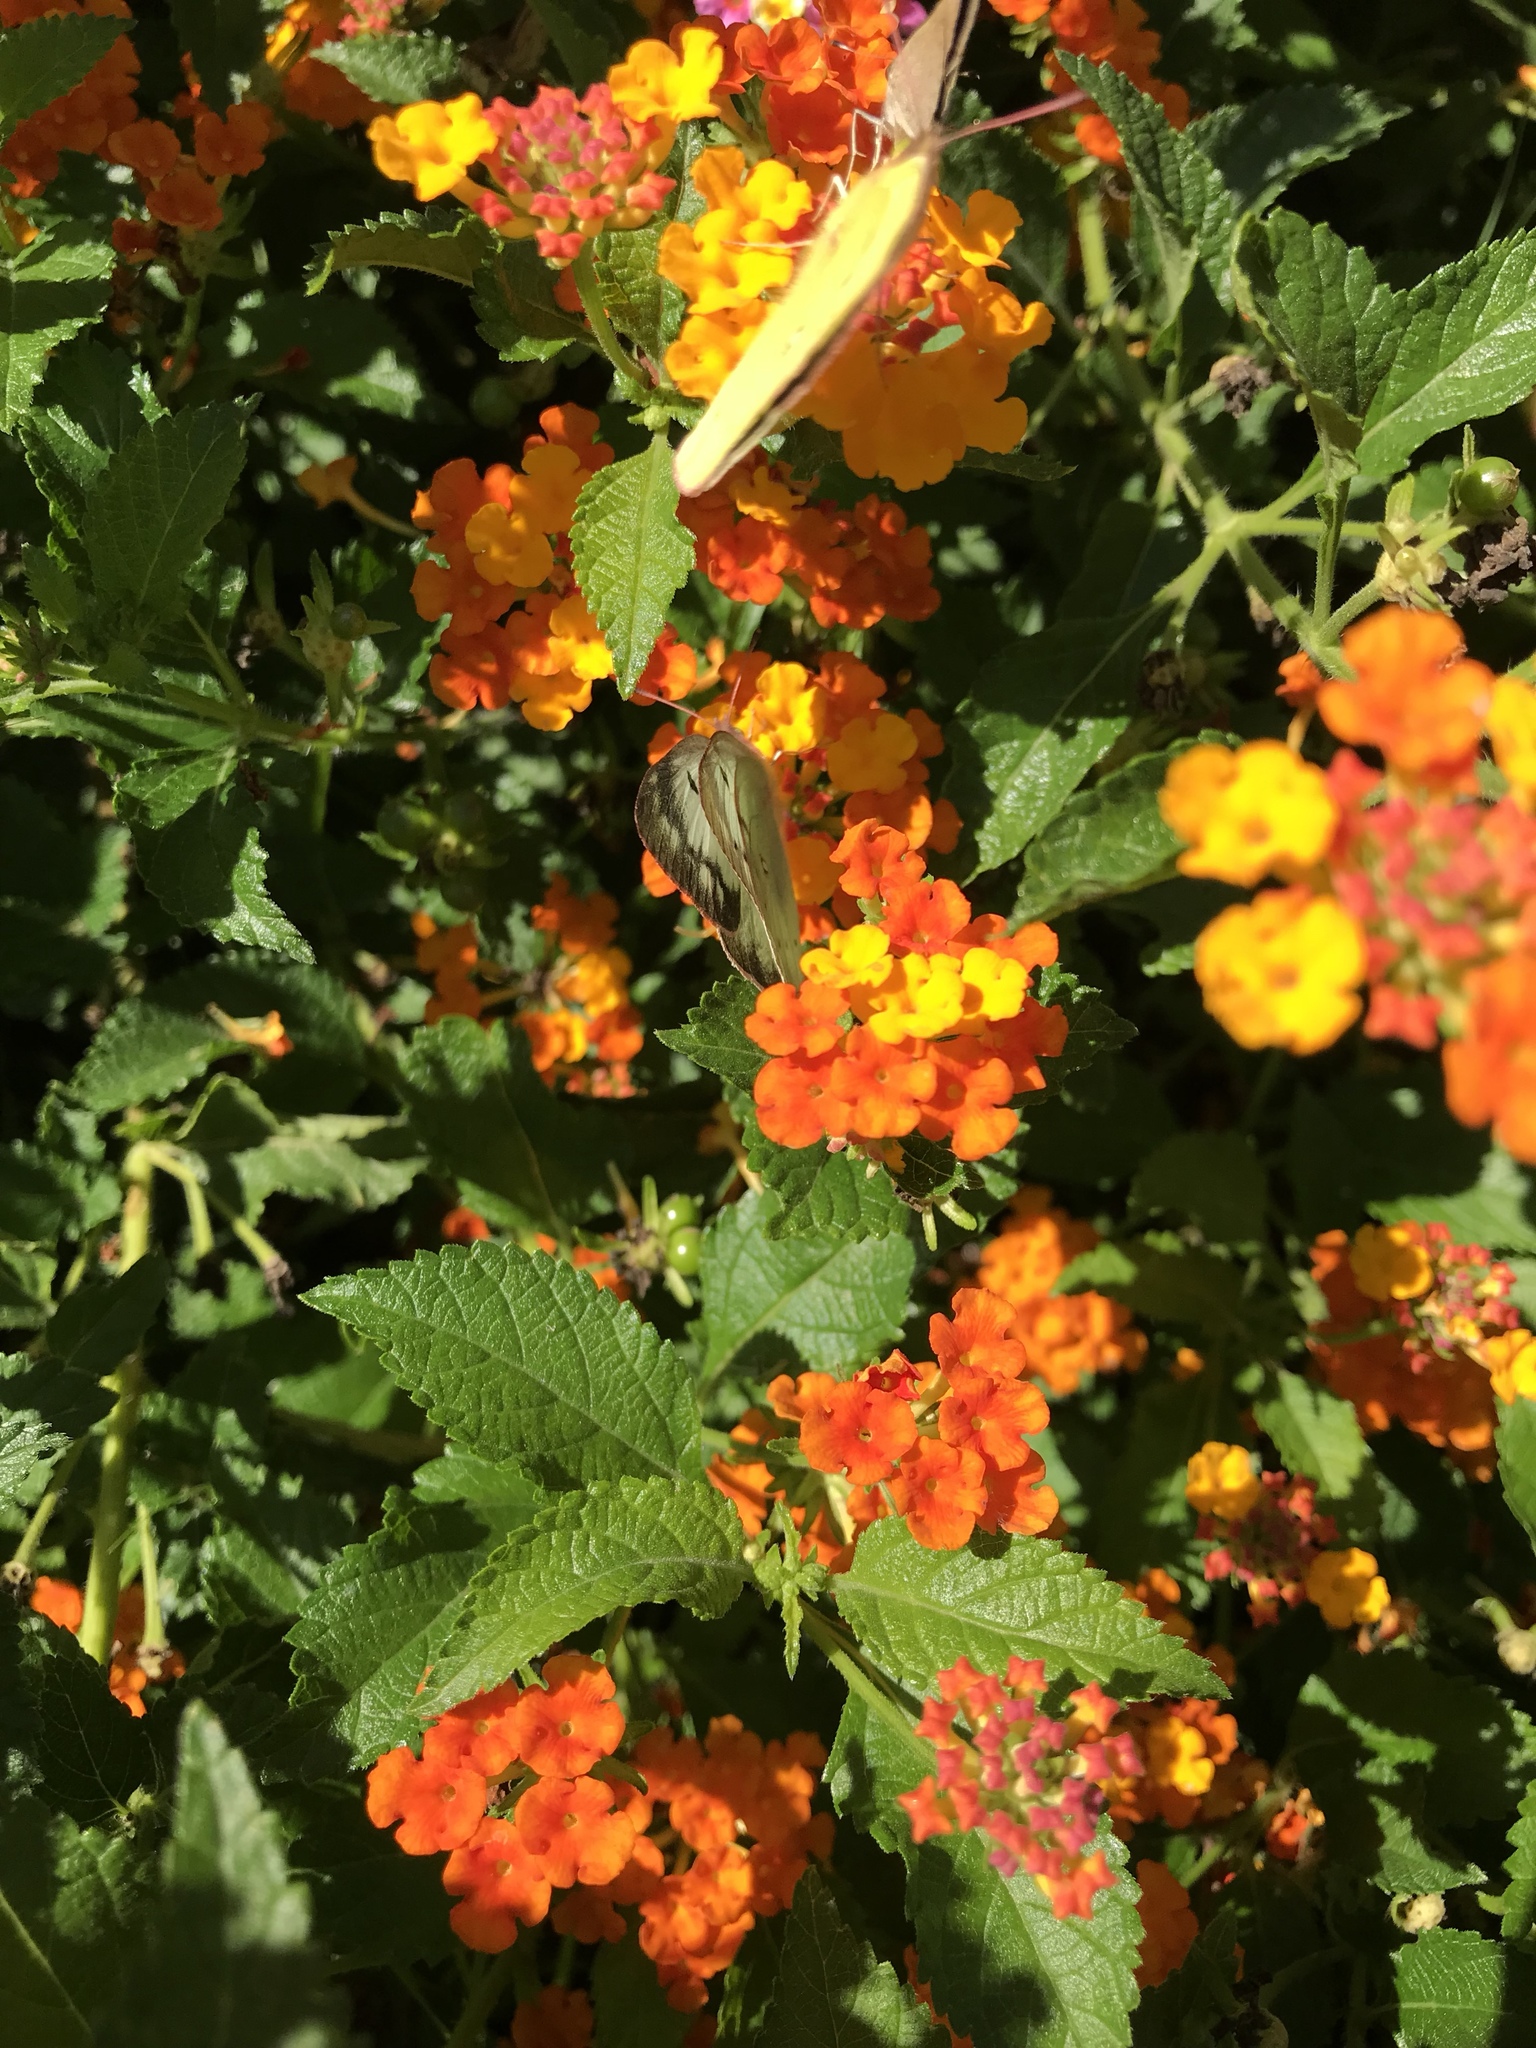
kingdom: Animalia
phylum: Arthropoda
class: Insecta
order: Lepidoptera
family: Pieridae
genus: Phoebis
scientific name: Phoebis sennae
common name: Cloudless sulphur
